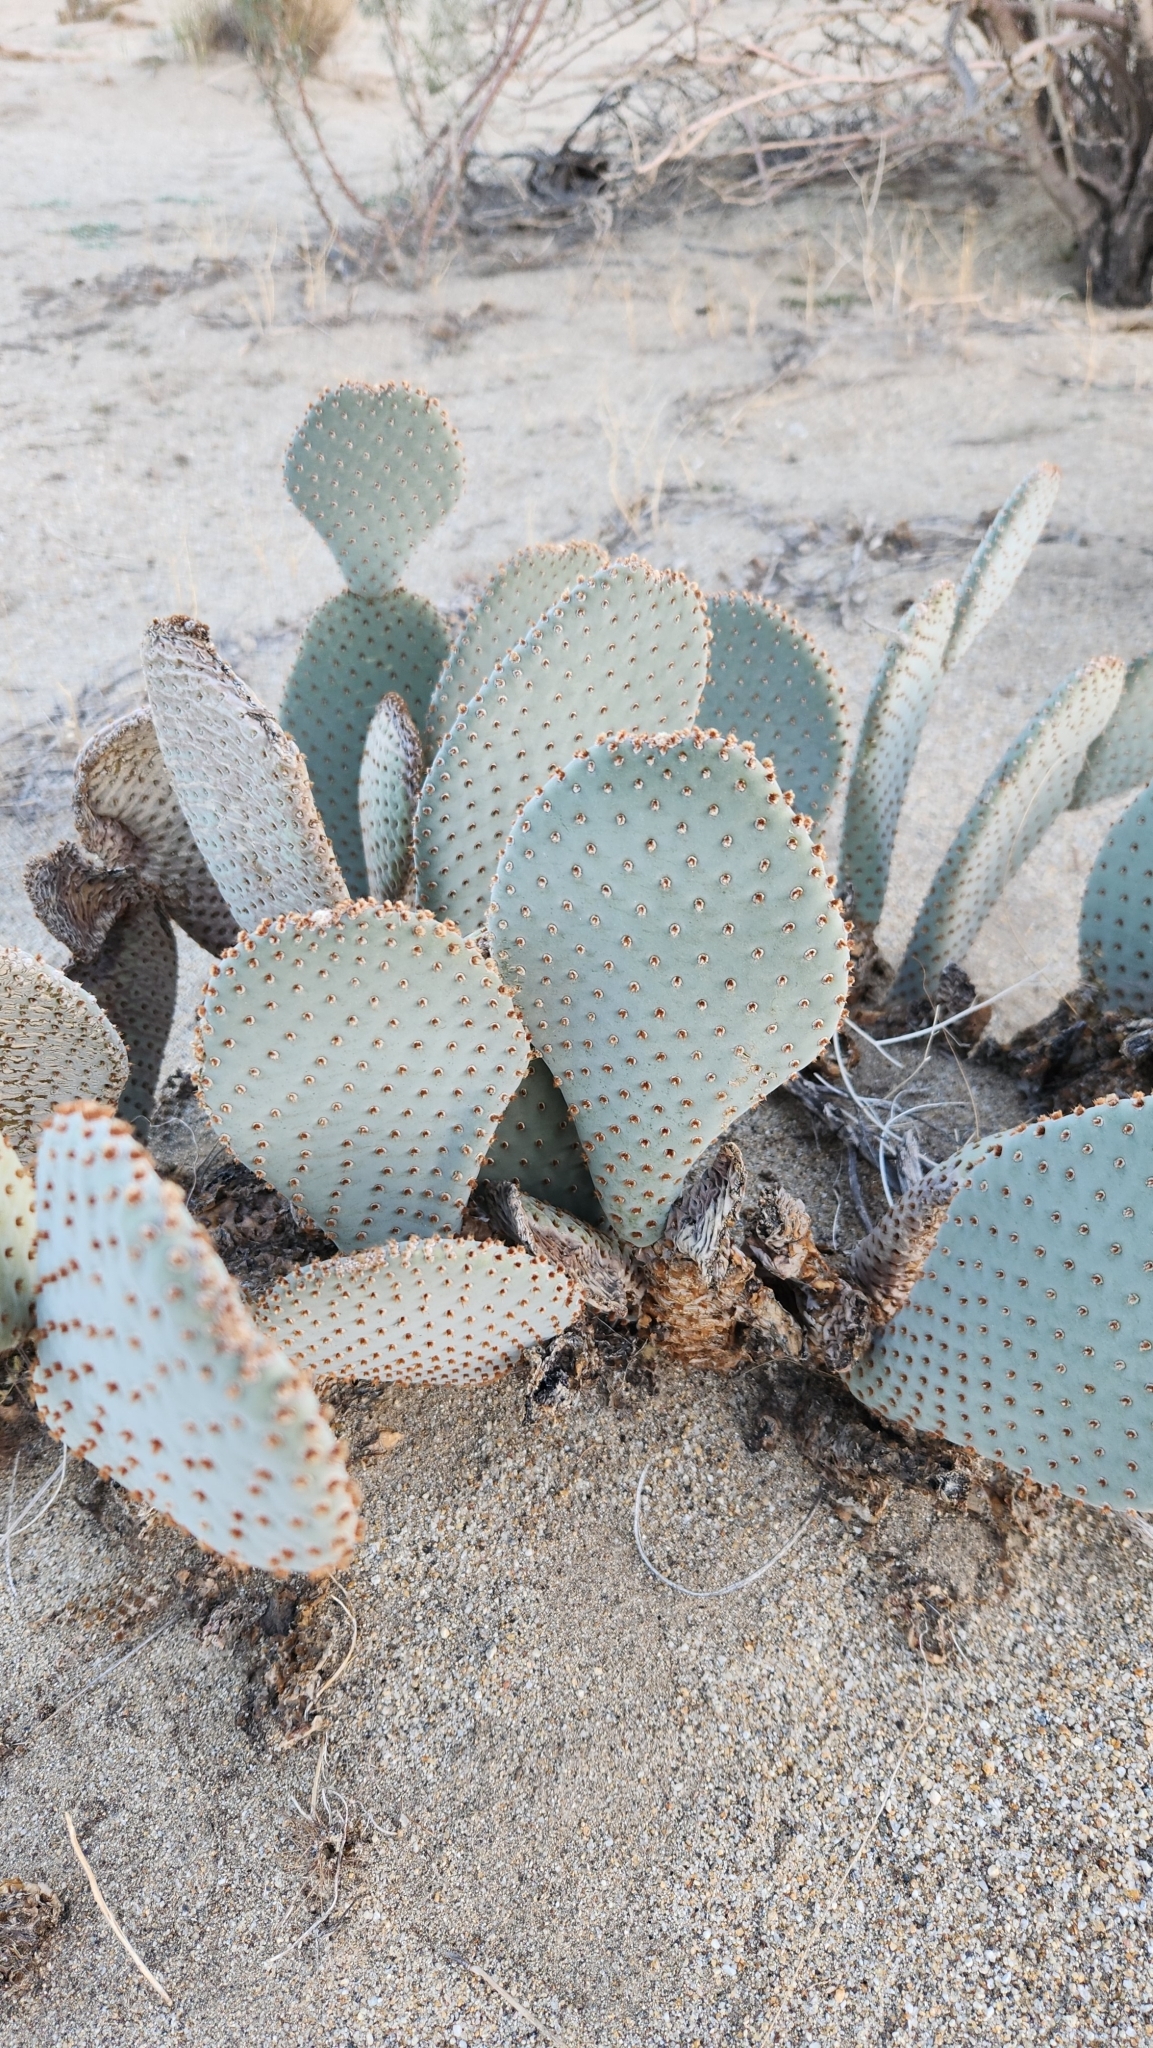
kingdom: Plantae
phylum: Tracheophyta
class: Magnoliopsida
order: Caryophyllales
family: Cactaceae
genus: Opuntia
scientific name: Opuntia basilaris
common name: Beavertail prickly-pear
